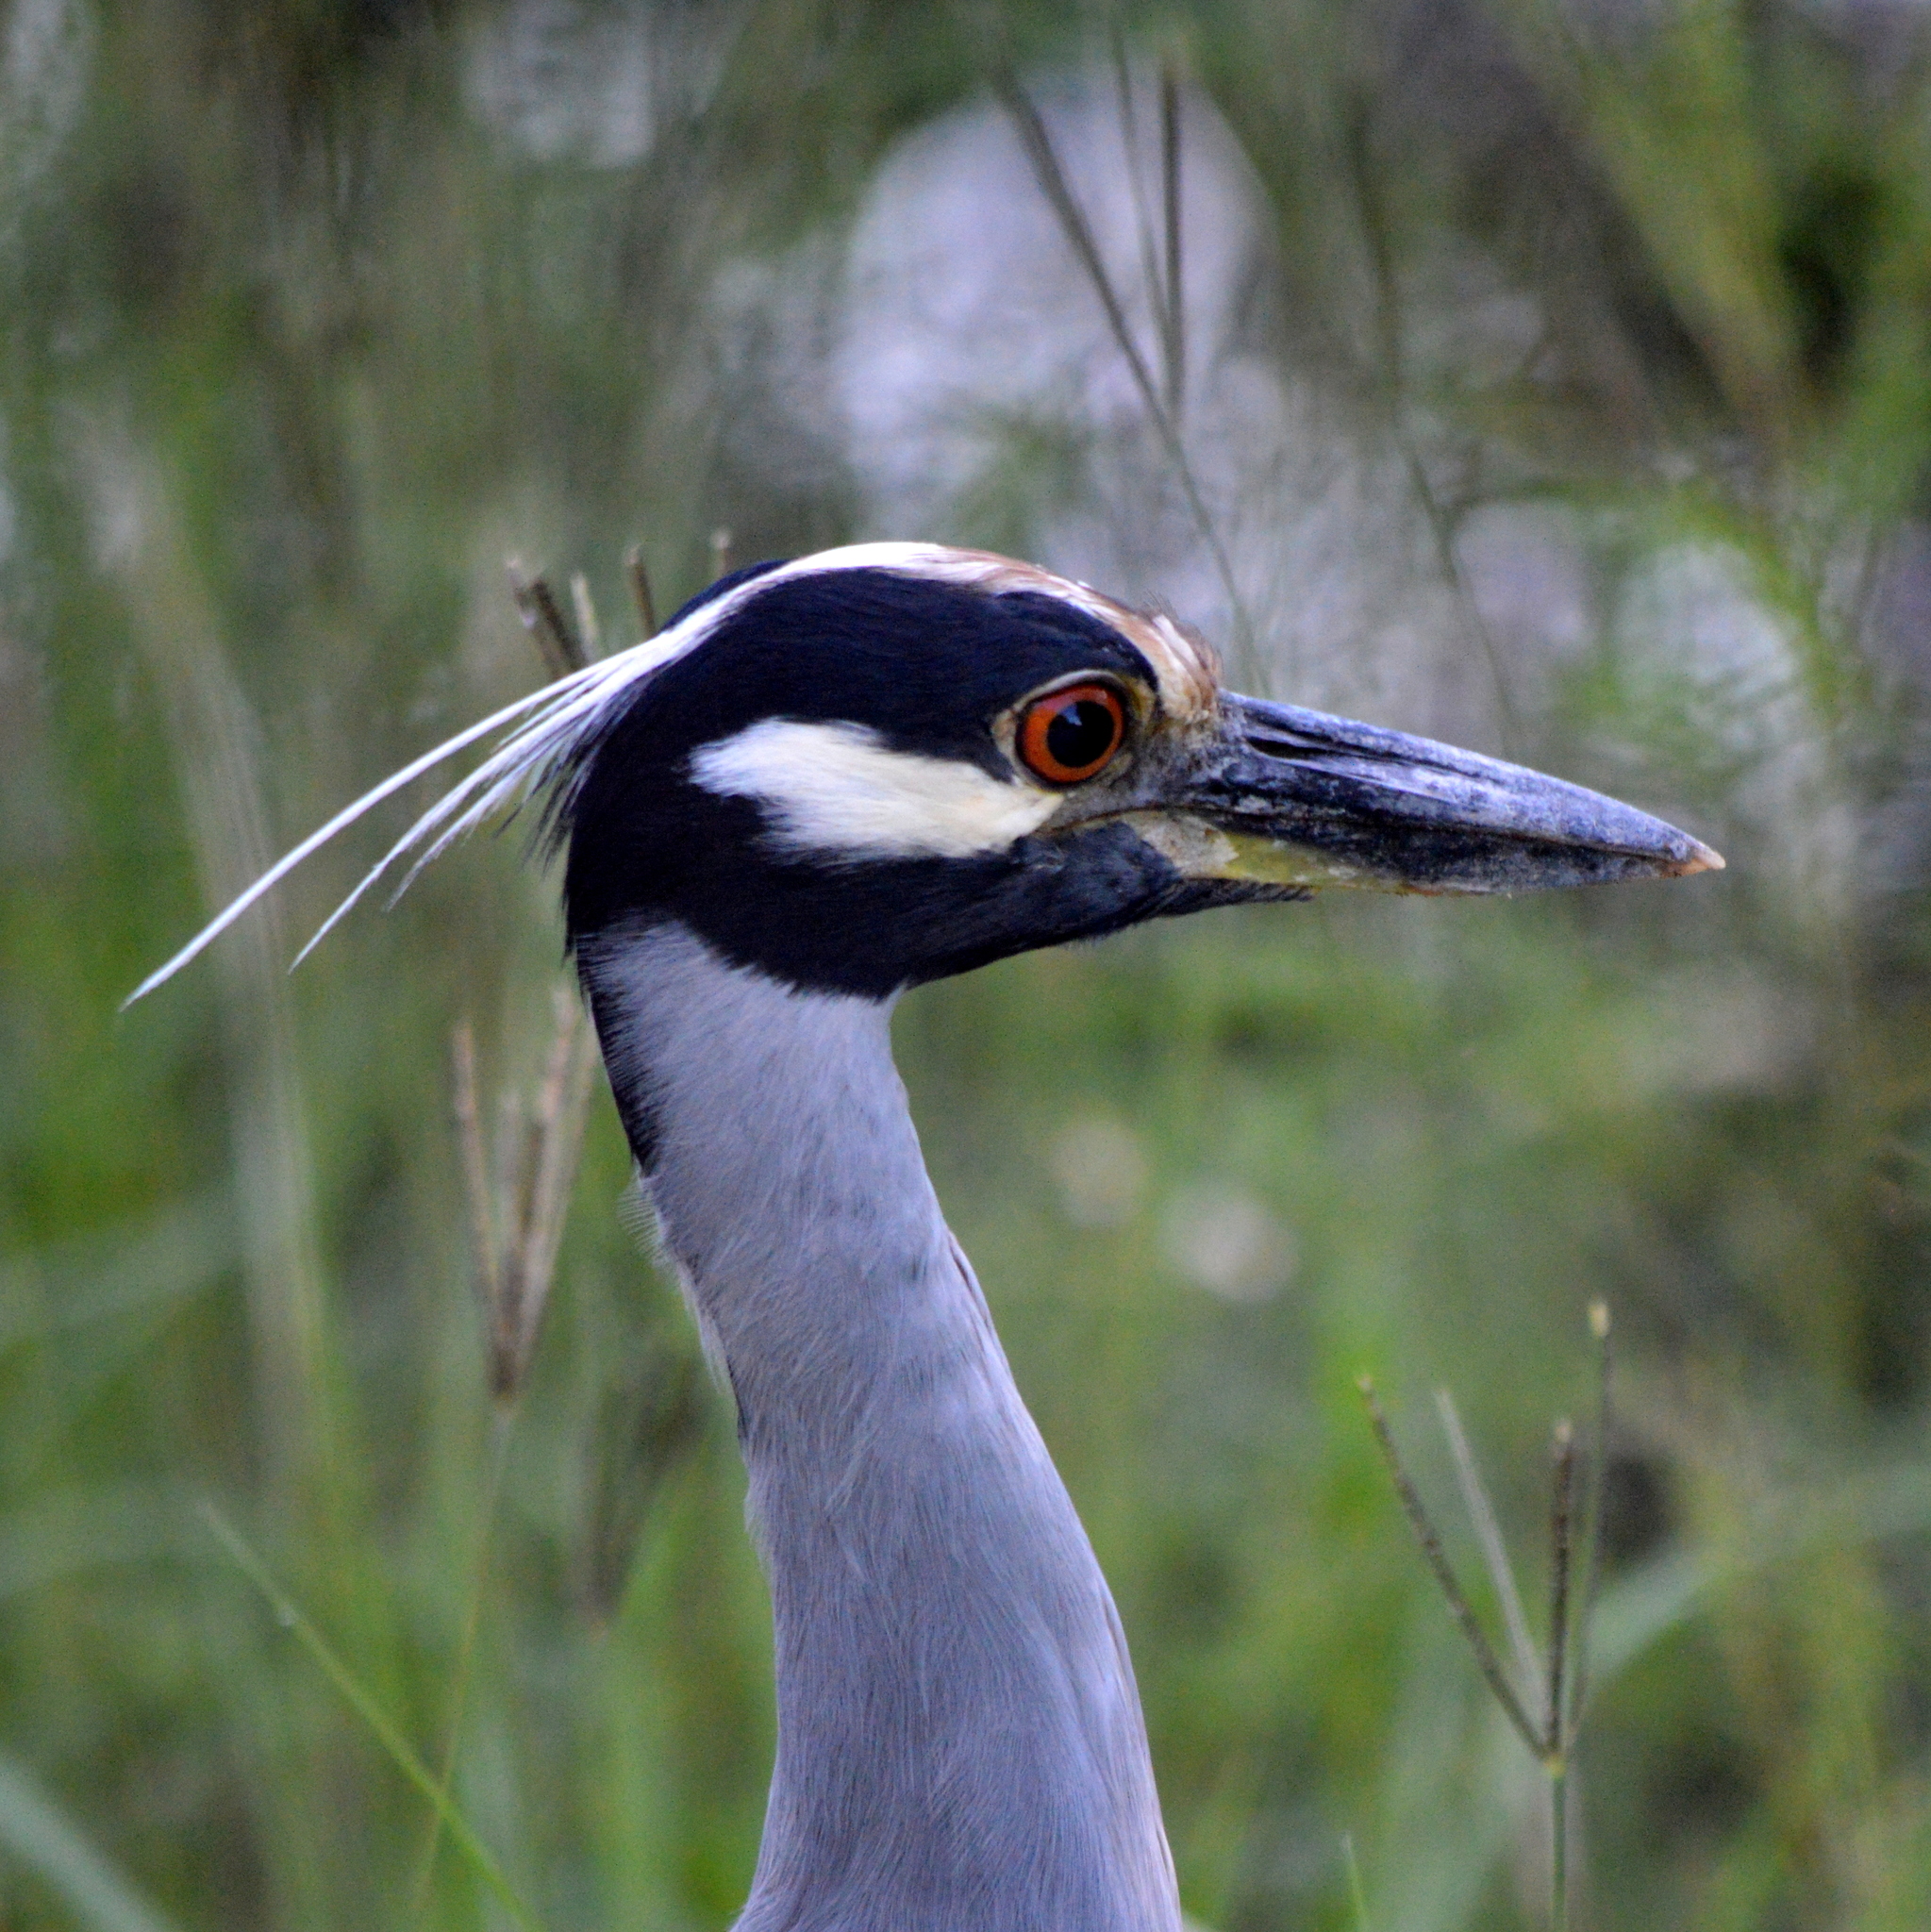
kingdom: Animalia
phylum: Chordata
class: Aves
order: Pelecaniformes
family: Ardeidae
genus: Nyctanassa
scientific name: Nyctanassa violacea
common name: Yellow-crowned night heron
